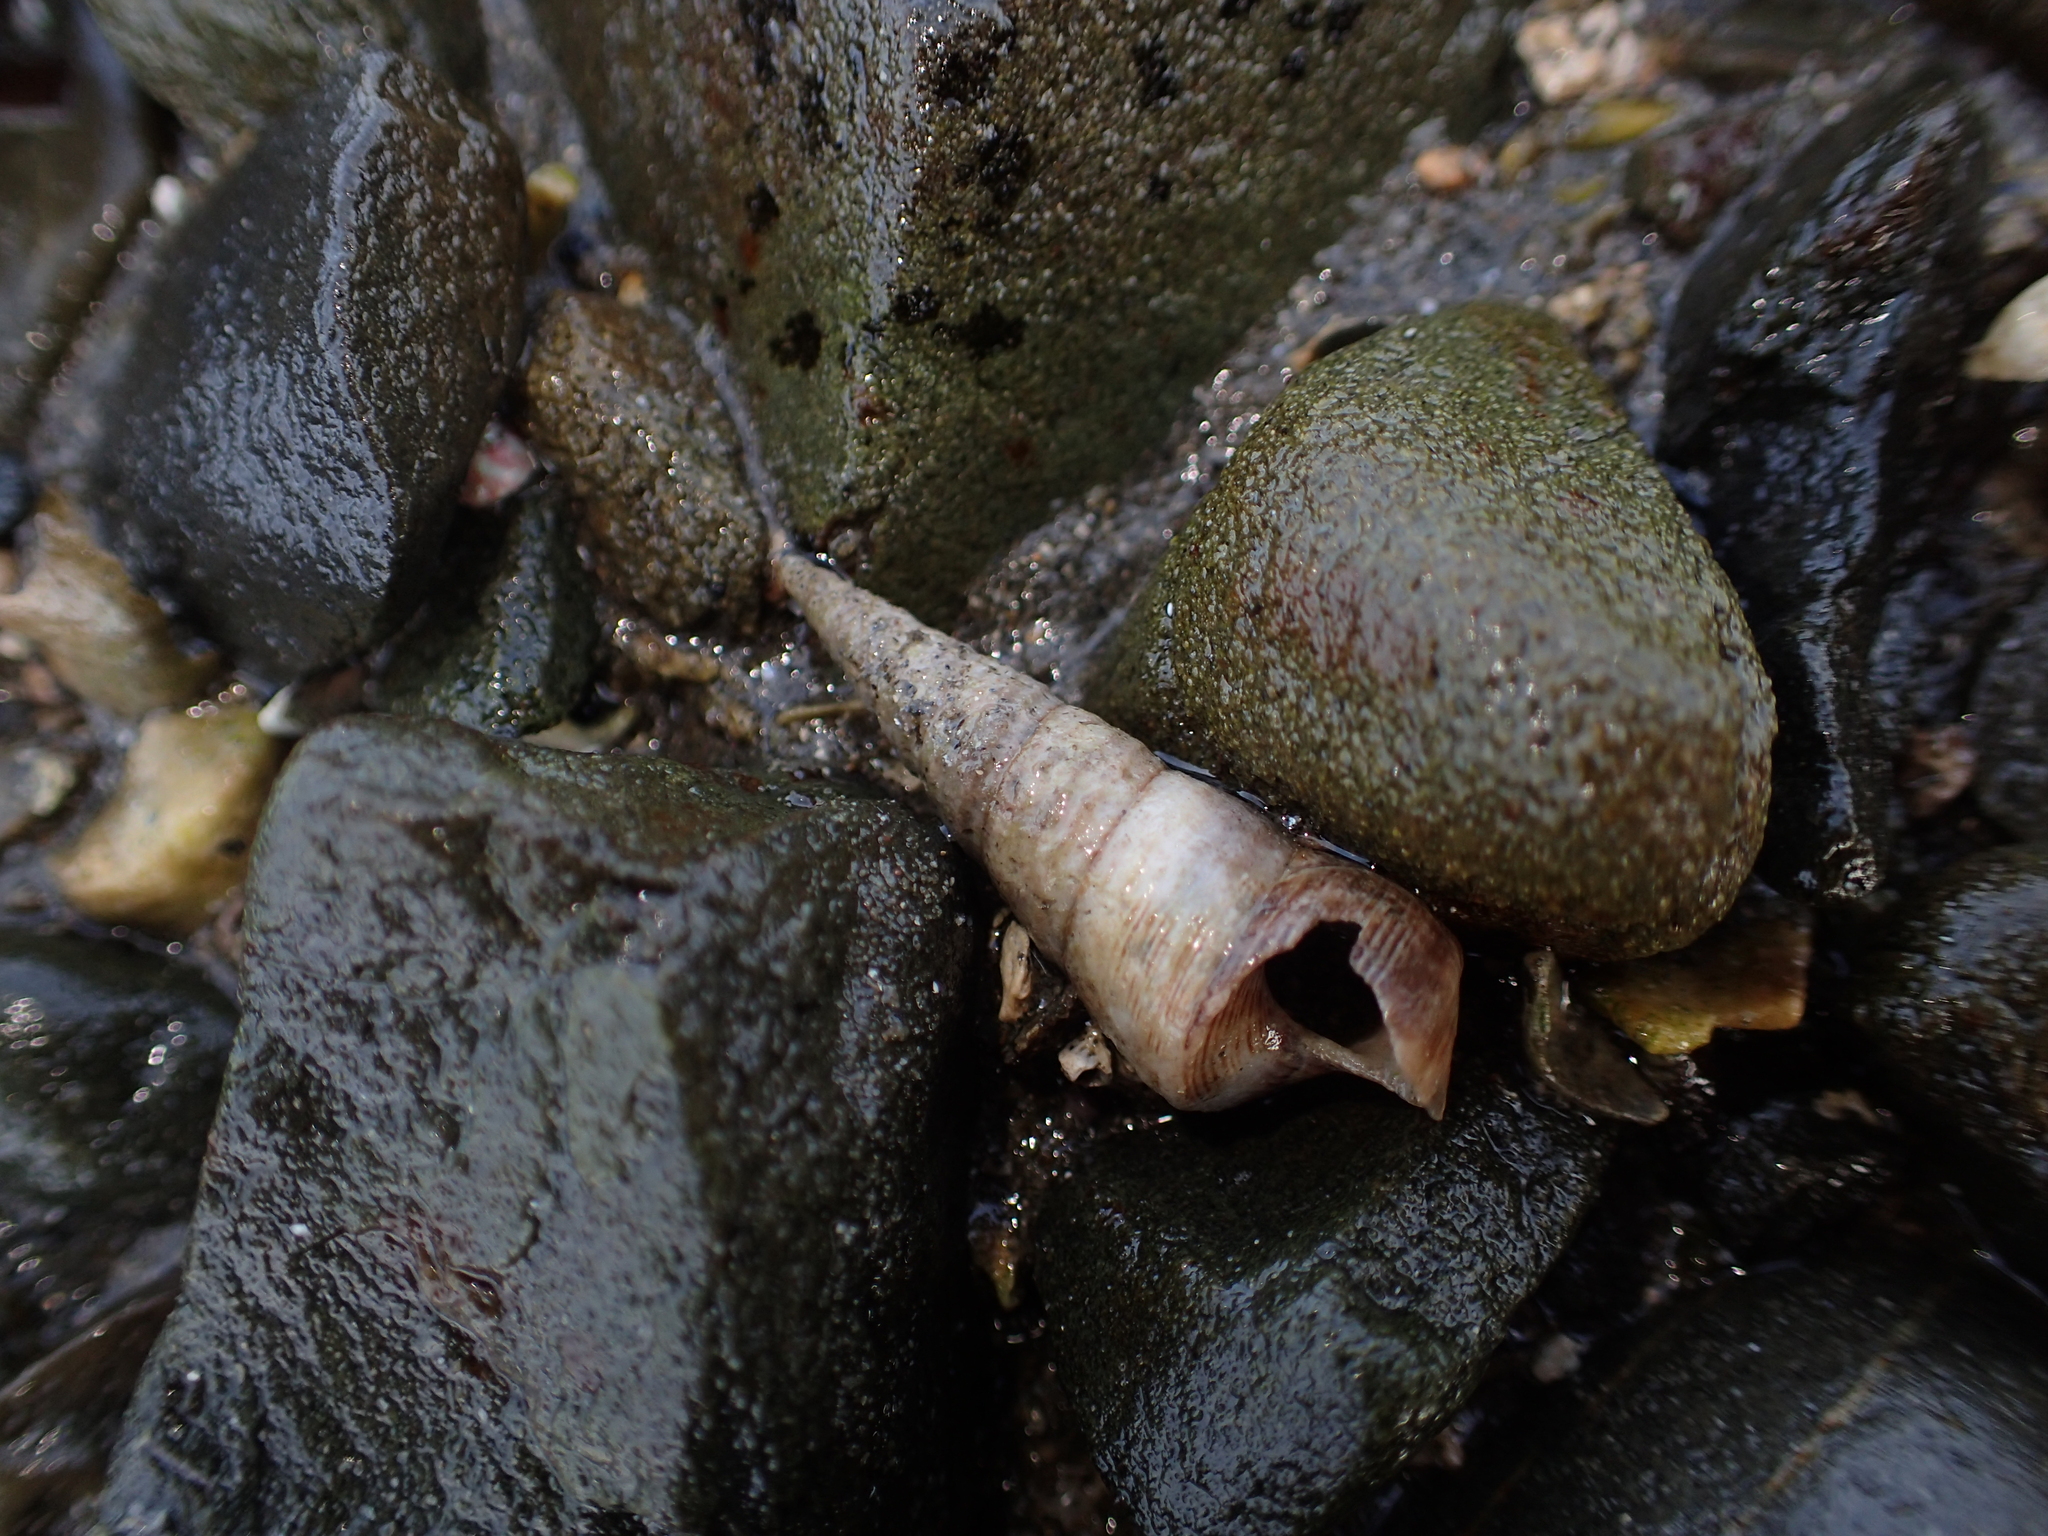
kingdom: Animalia
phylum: Mollusca
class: Gastropoda
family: Turritellidae
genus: Maoricolpus
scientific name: Maoricolpus roseus
